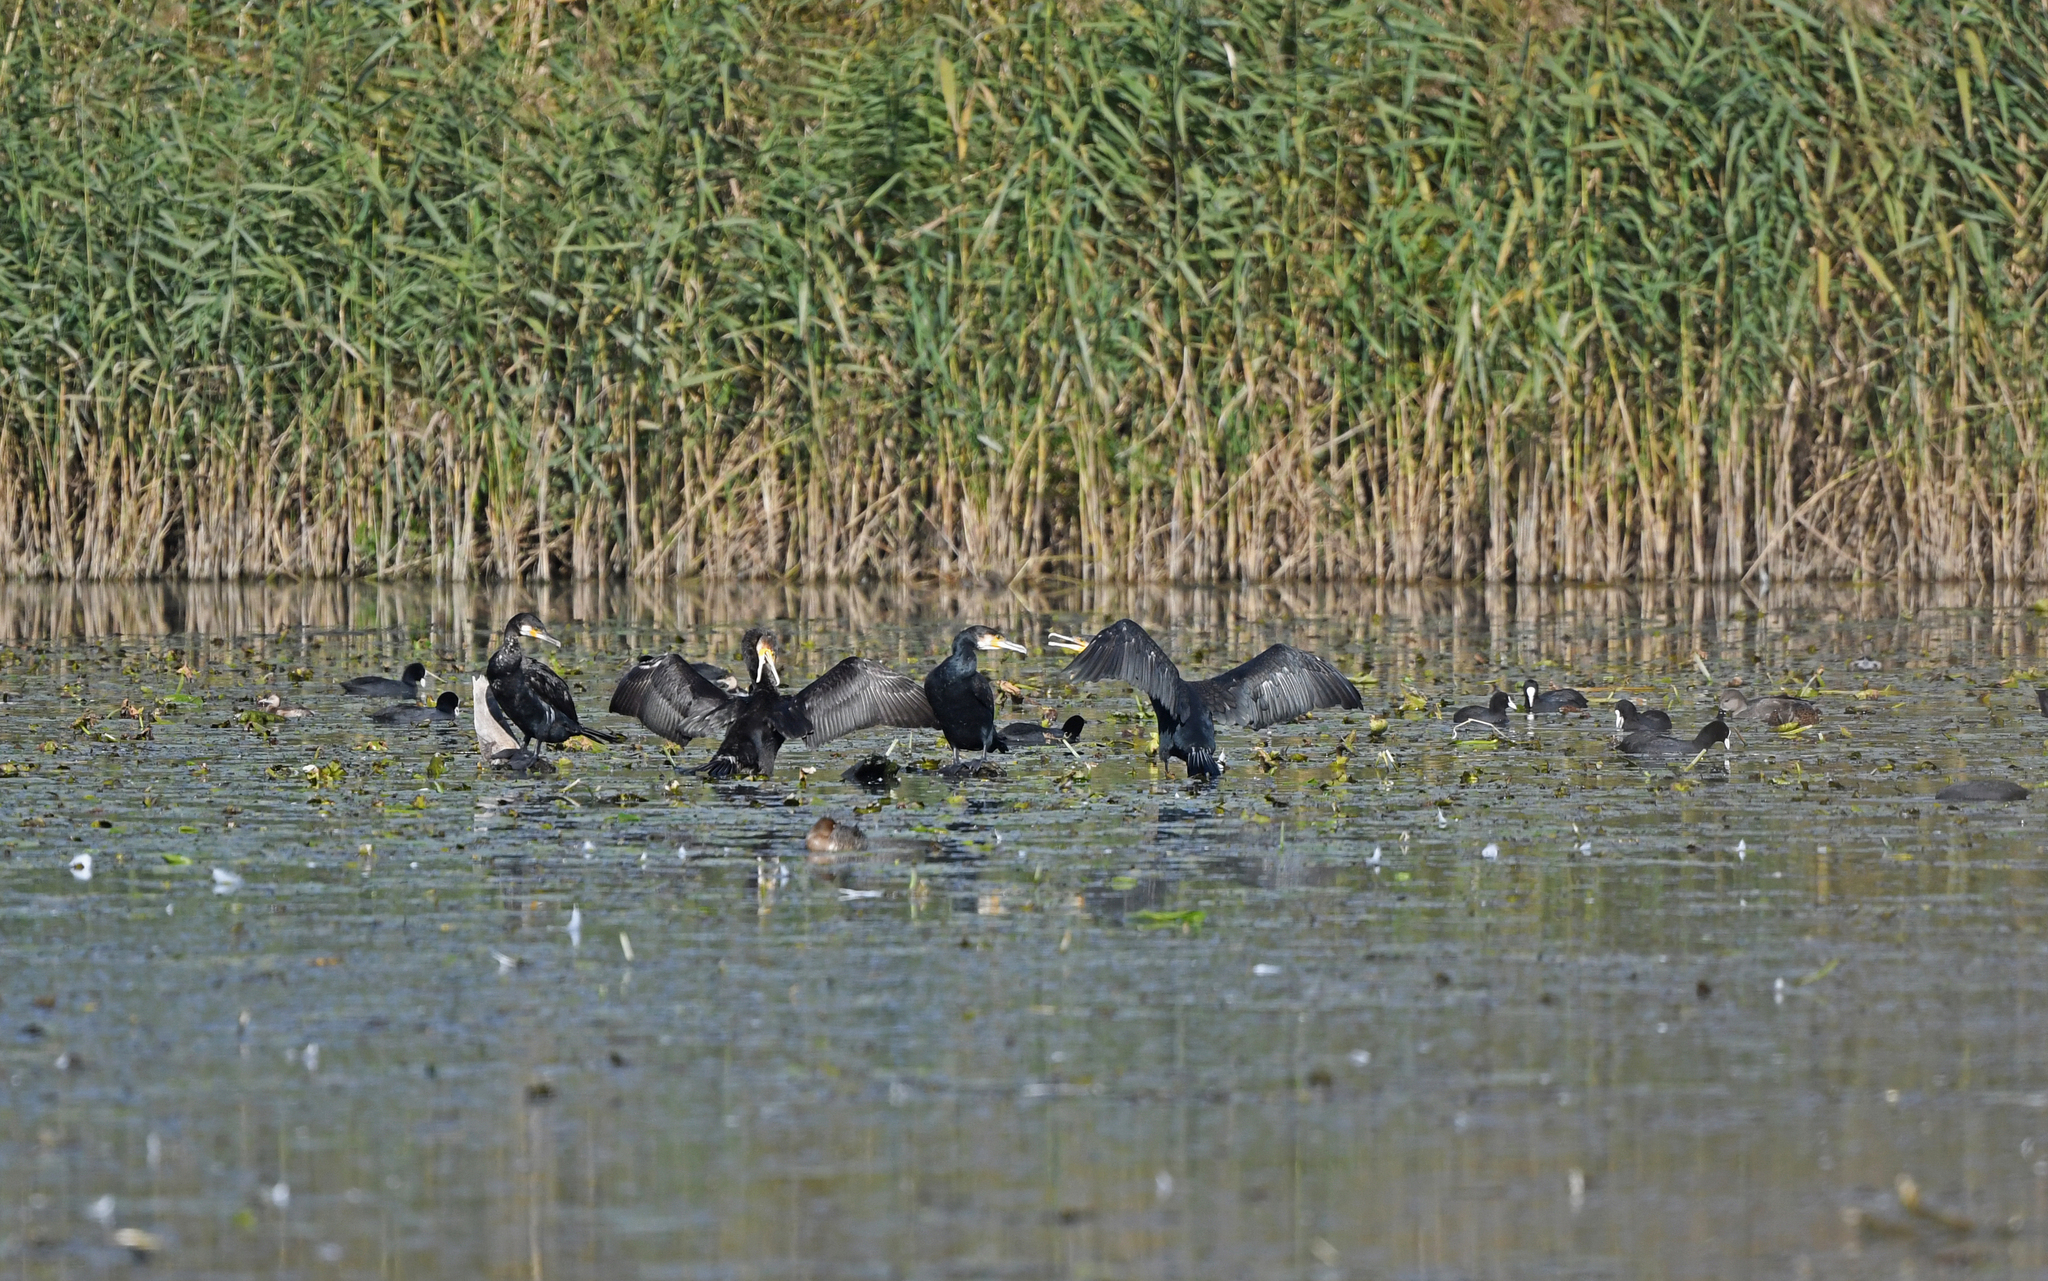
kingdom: Animalia
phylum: Chordata
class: Aves
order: Suliformes
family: Phalacrocoracidae
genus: Phalacrocorax
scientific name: Phalacrocorax carbo
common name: Great cormorant
